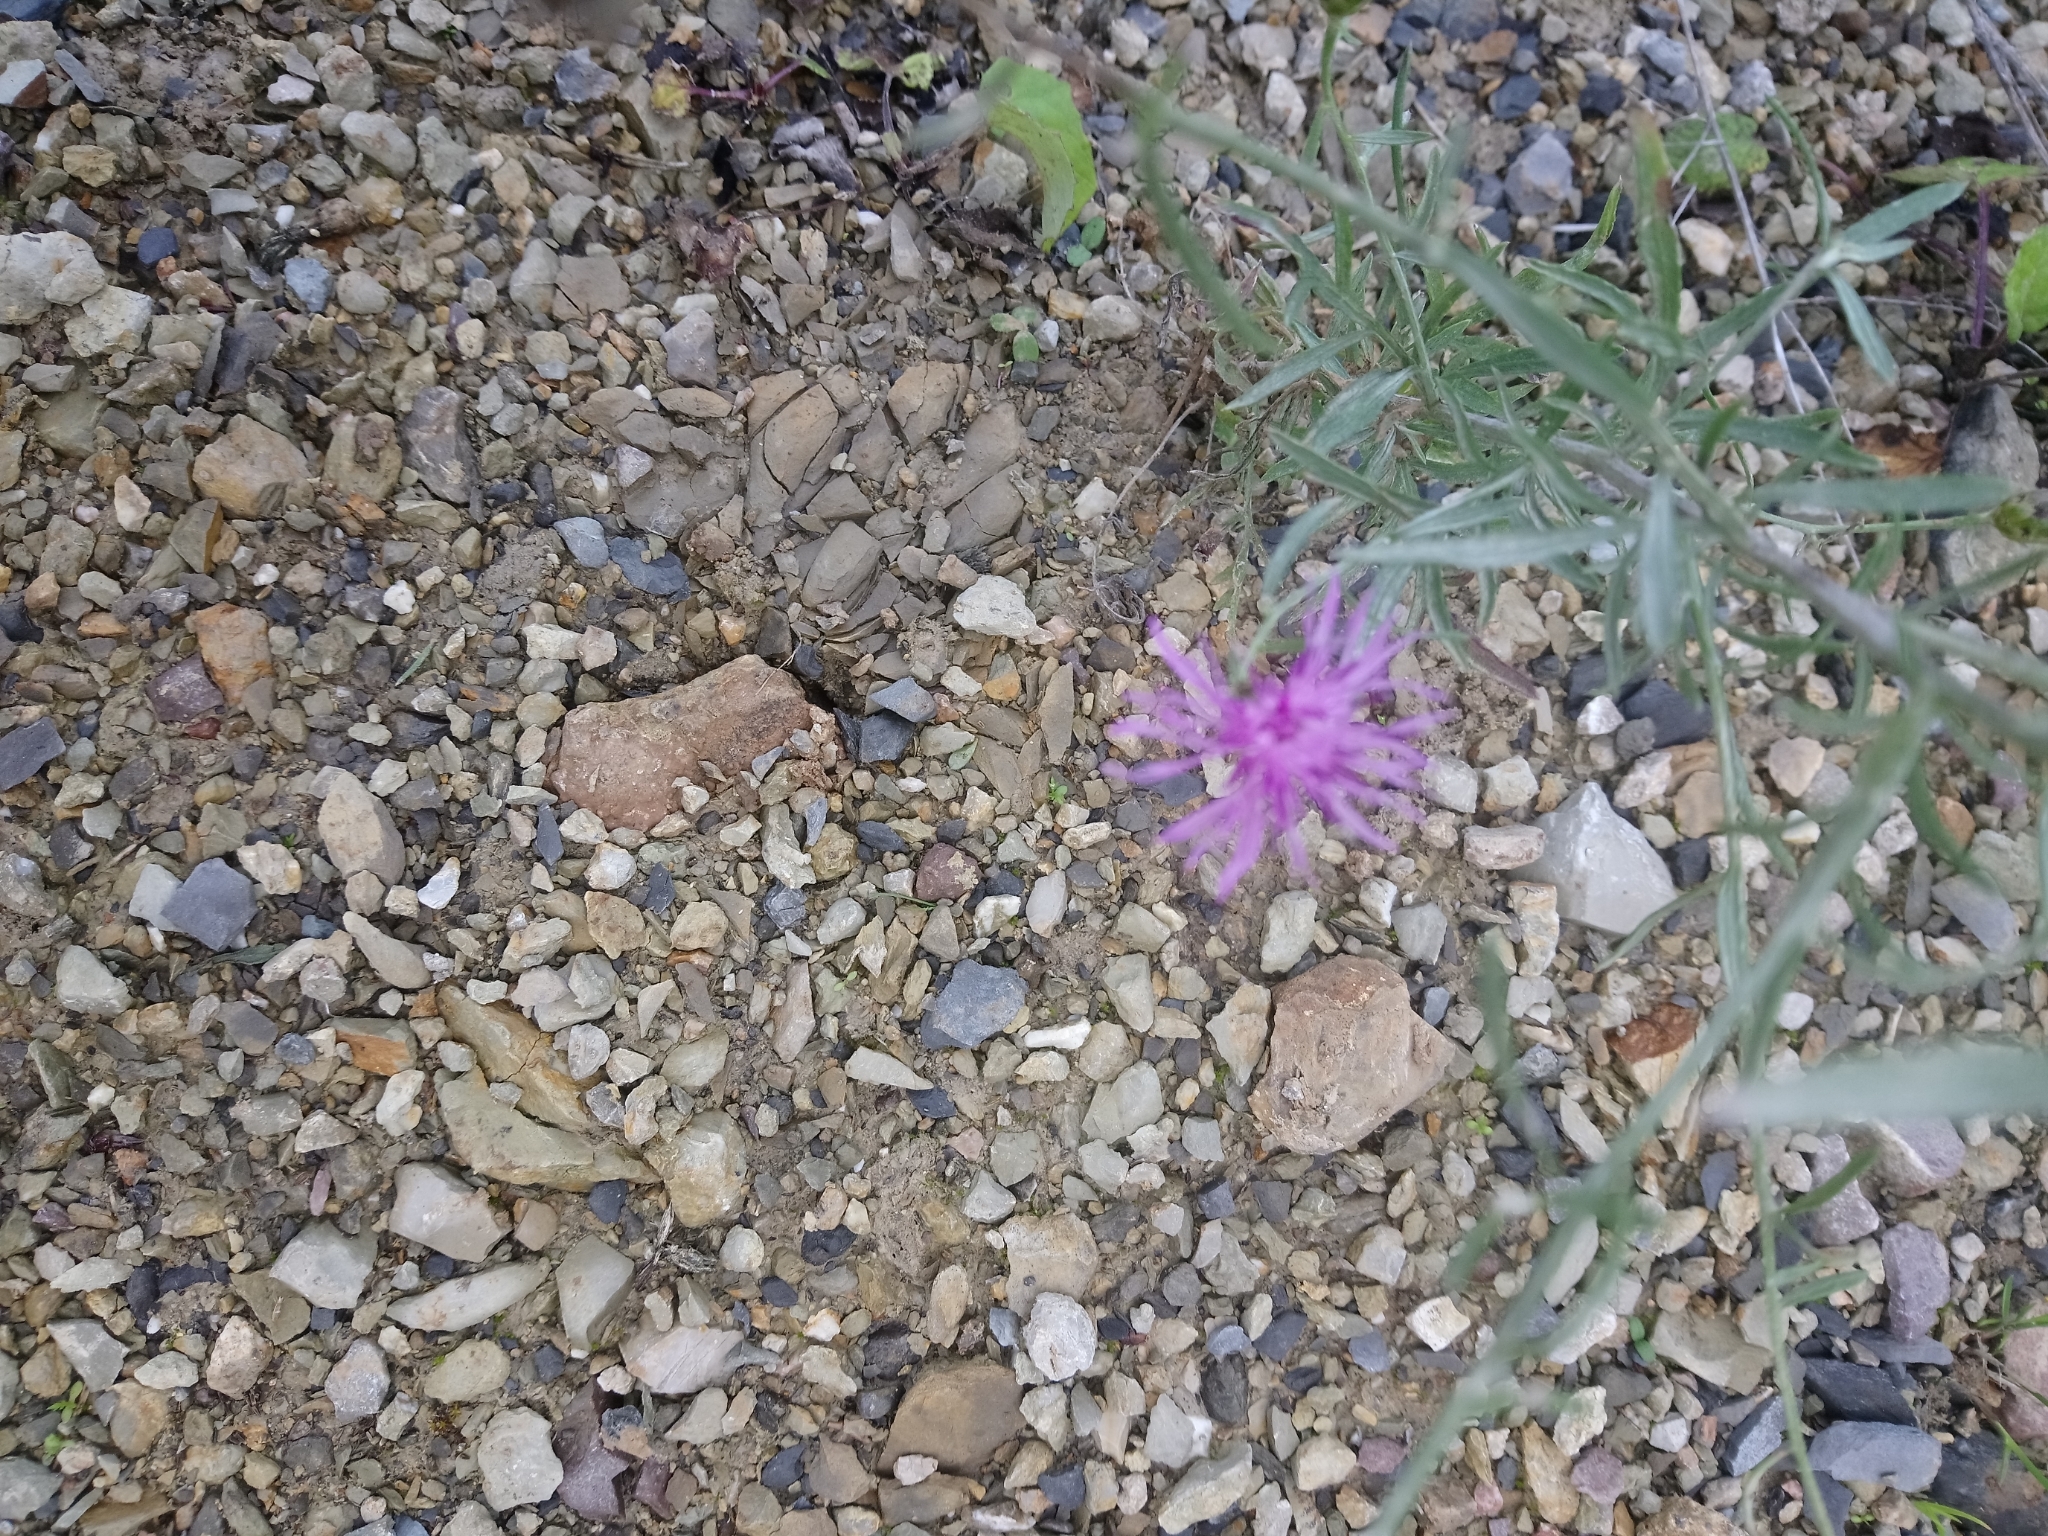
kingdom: Plantae
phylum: Tracheophyta
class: Magnoliopsida
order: Asterales
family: Asteraceae
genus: Centaurea
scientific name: Centaurea stoebe
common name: Spotted knapweed
